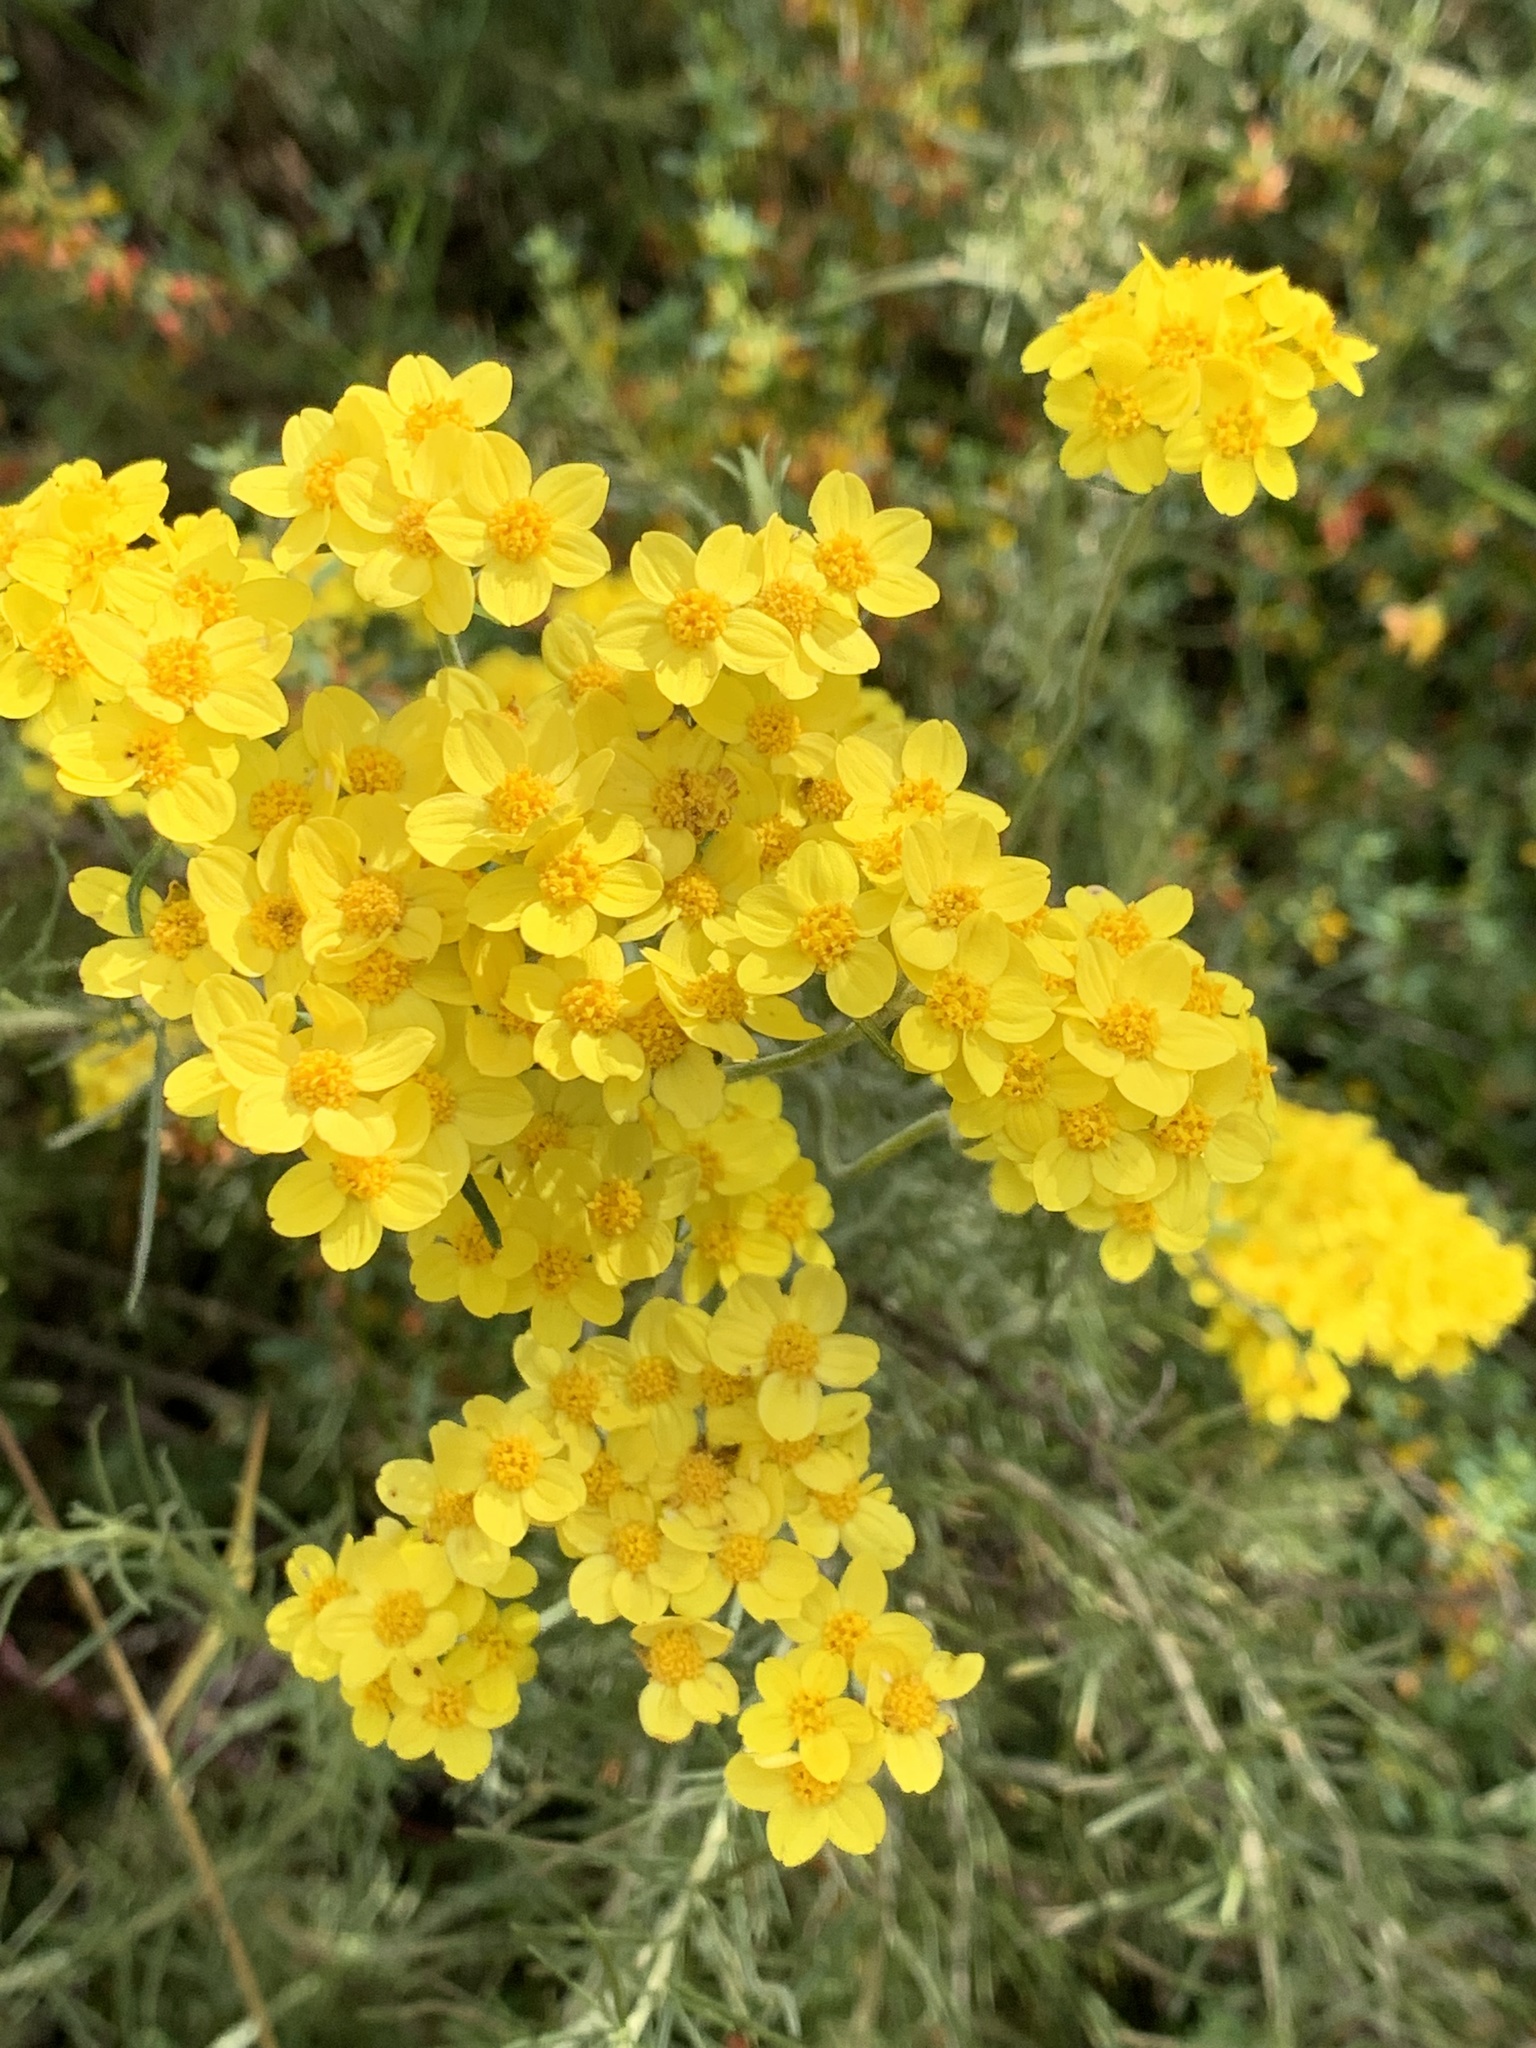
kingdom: Plantae
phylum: Tracheophyta
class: Magnoliopsida
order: Asterales
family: Asteraceae
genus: Eriophyllum
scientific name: Eriophyllum confertiflorum
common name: Golden-yarrow
